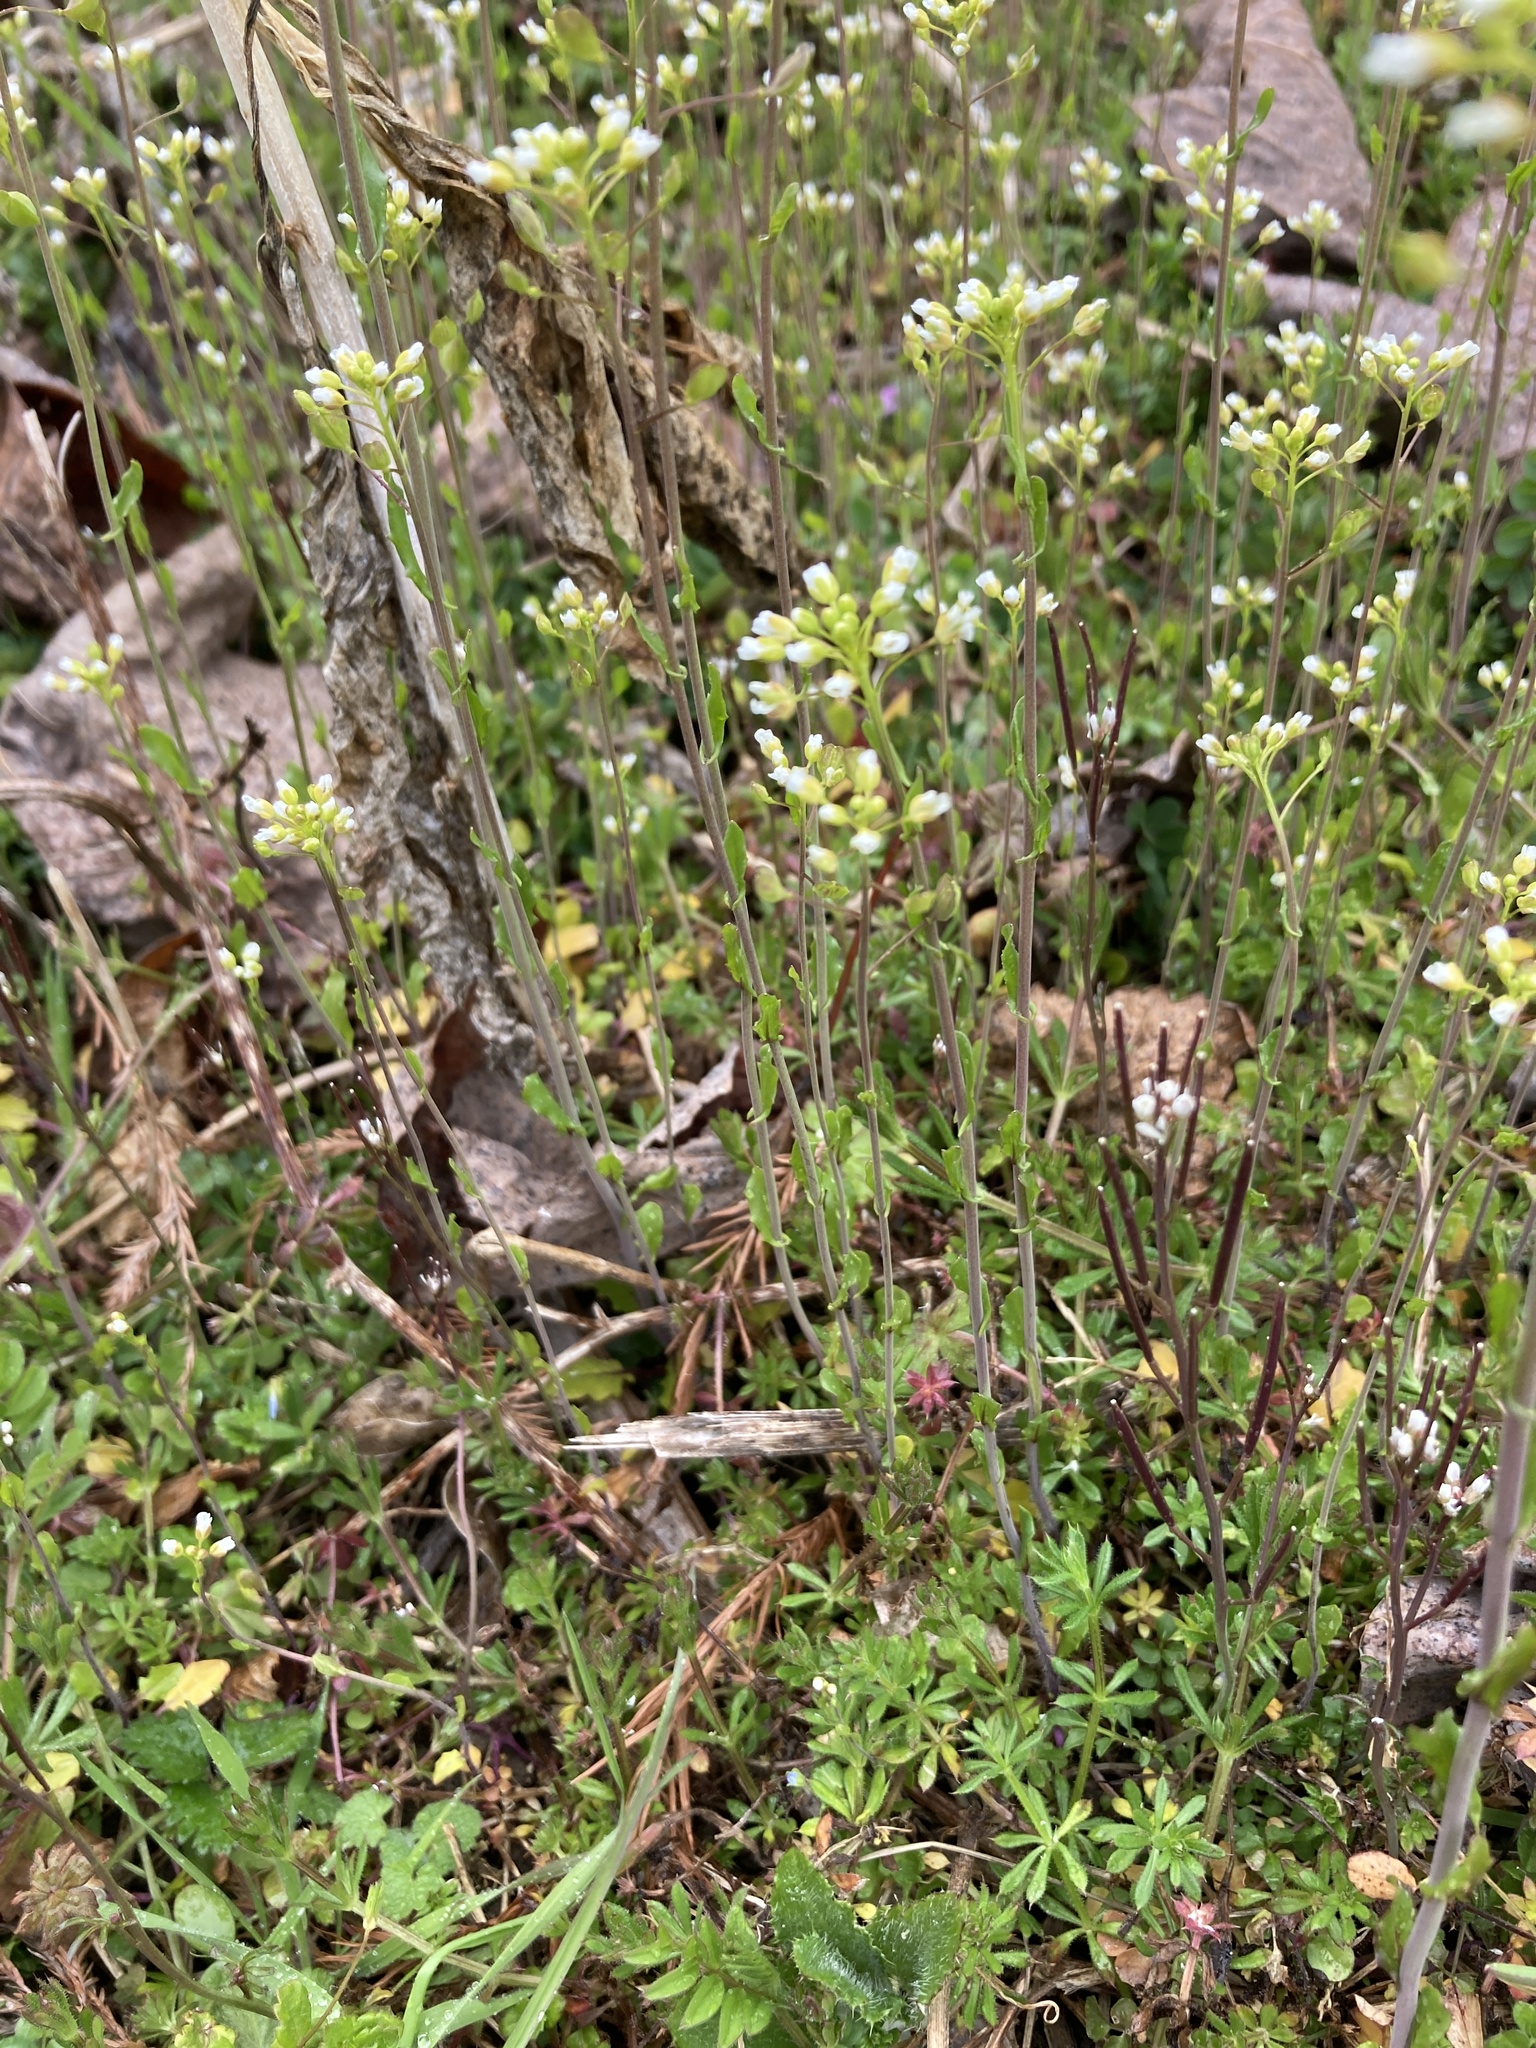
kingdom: Plantae
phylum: Tracheophyta
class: Magnoliopsida
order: Brassicales
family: Brassicaceae
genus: Mummenhoffia
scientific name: Mummenhoffia alliacea
